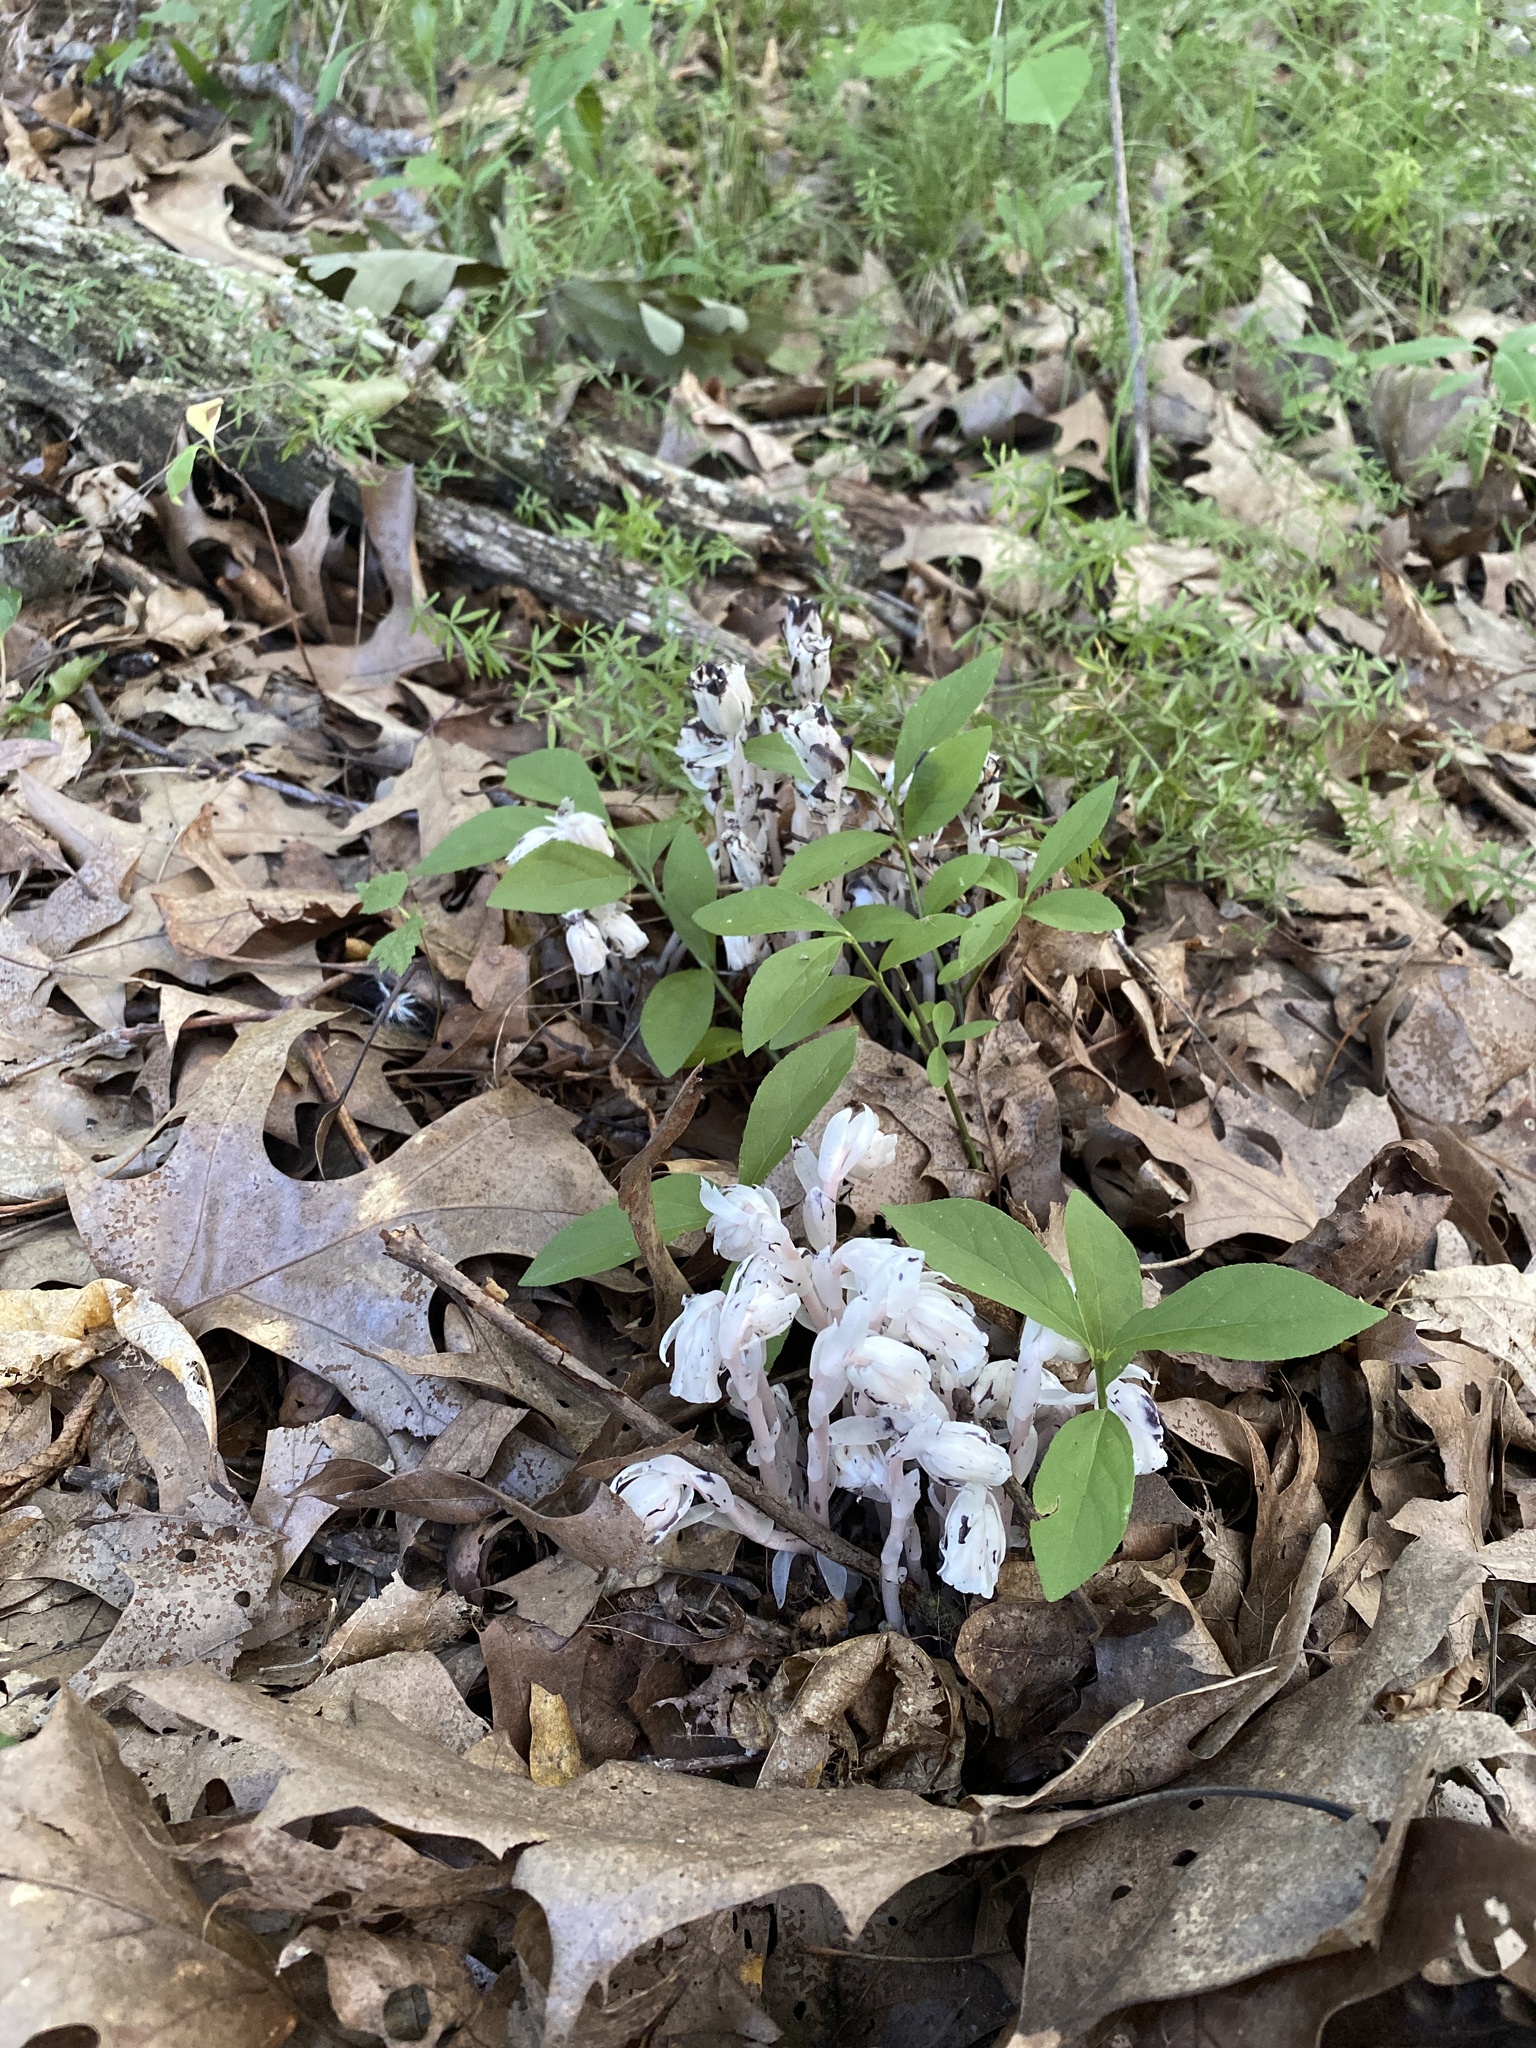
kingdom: Plantae
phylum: Tracheophyta
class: Magnoliopsida
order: Ericales
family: Ericaceae
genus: Monotropa
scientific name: Monotropa uniflora
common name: Convulsion root
